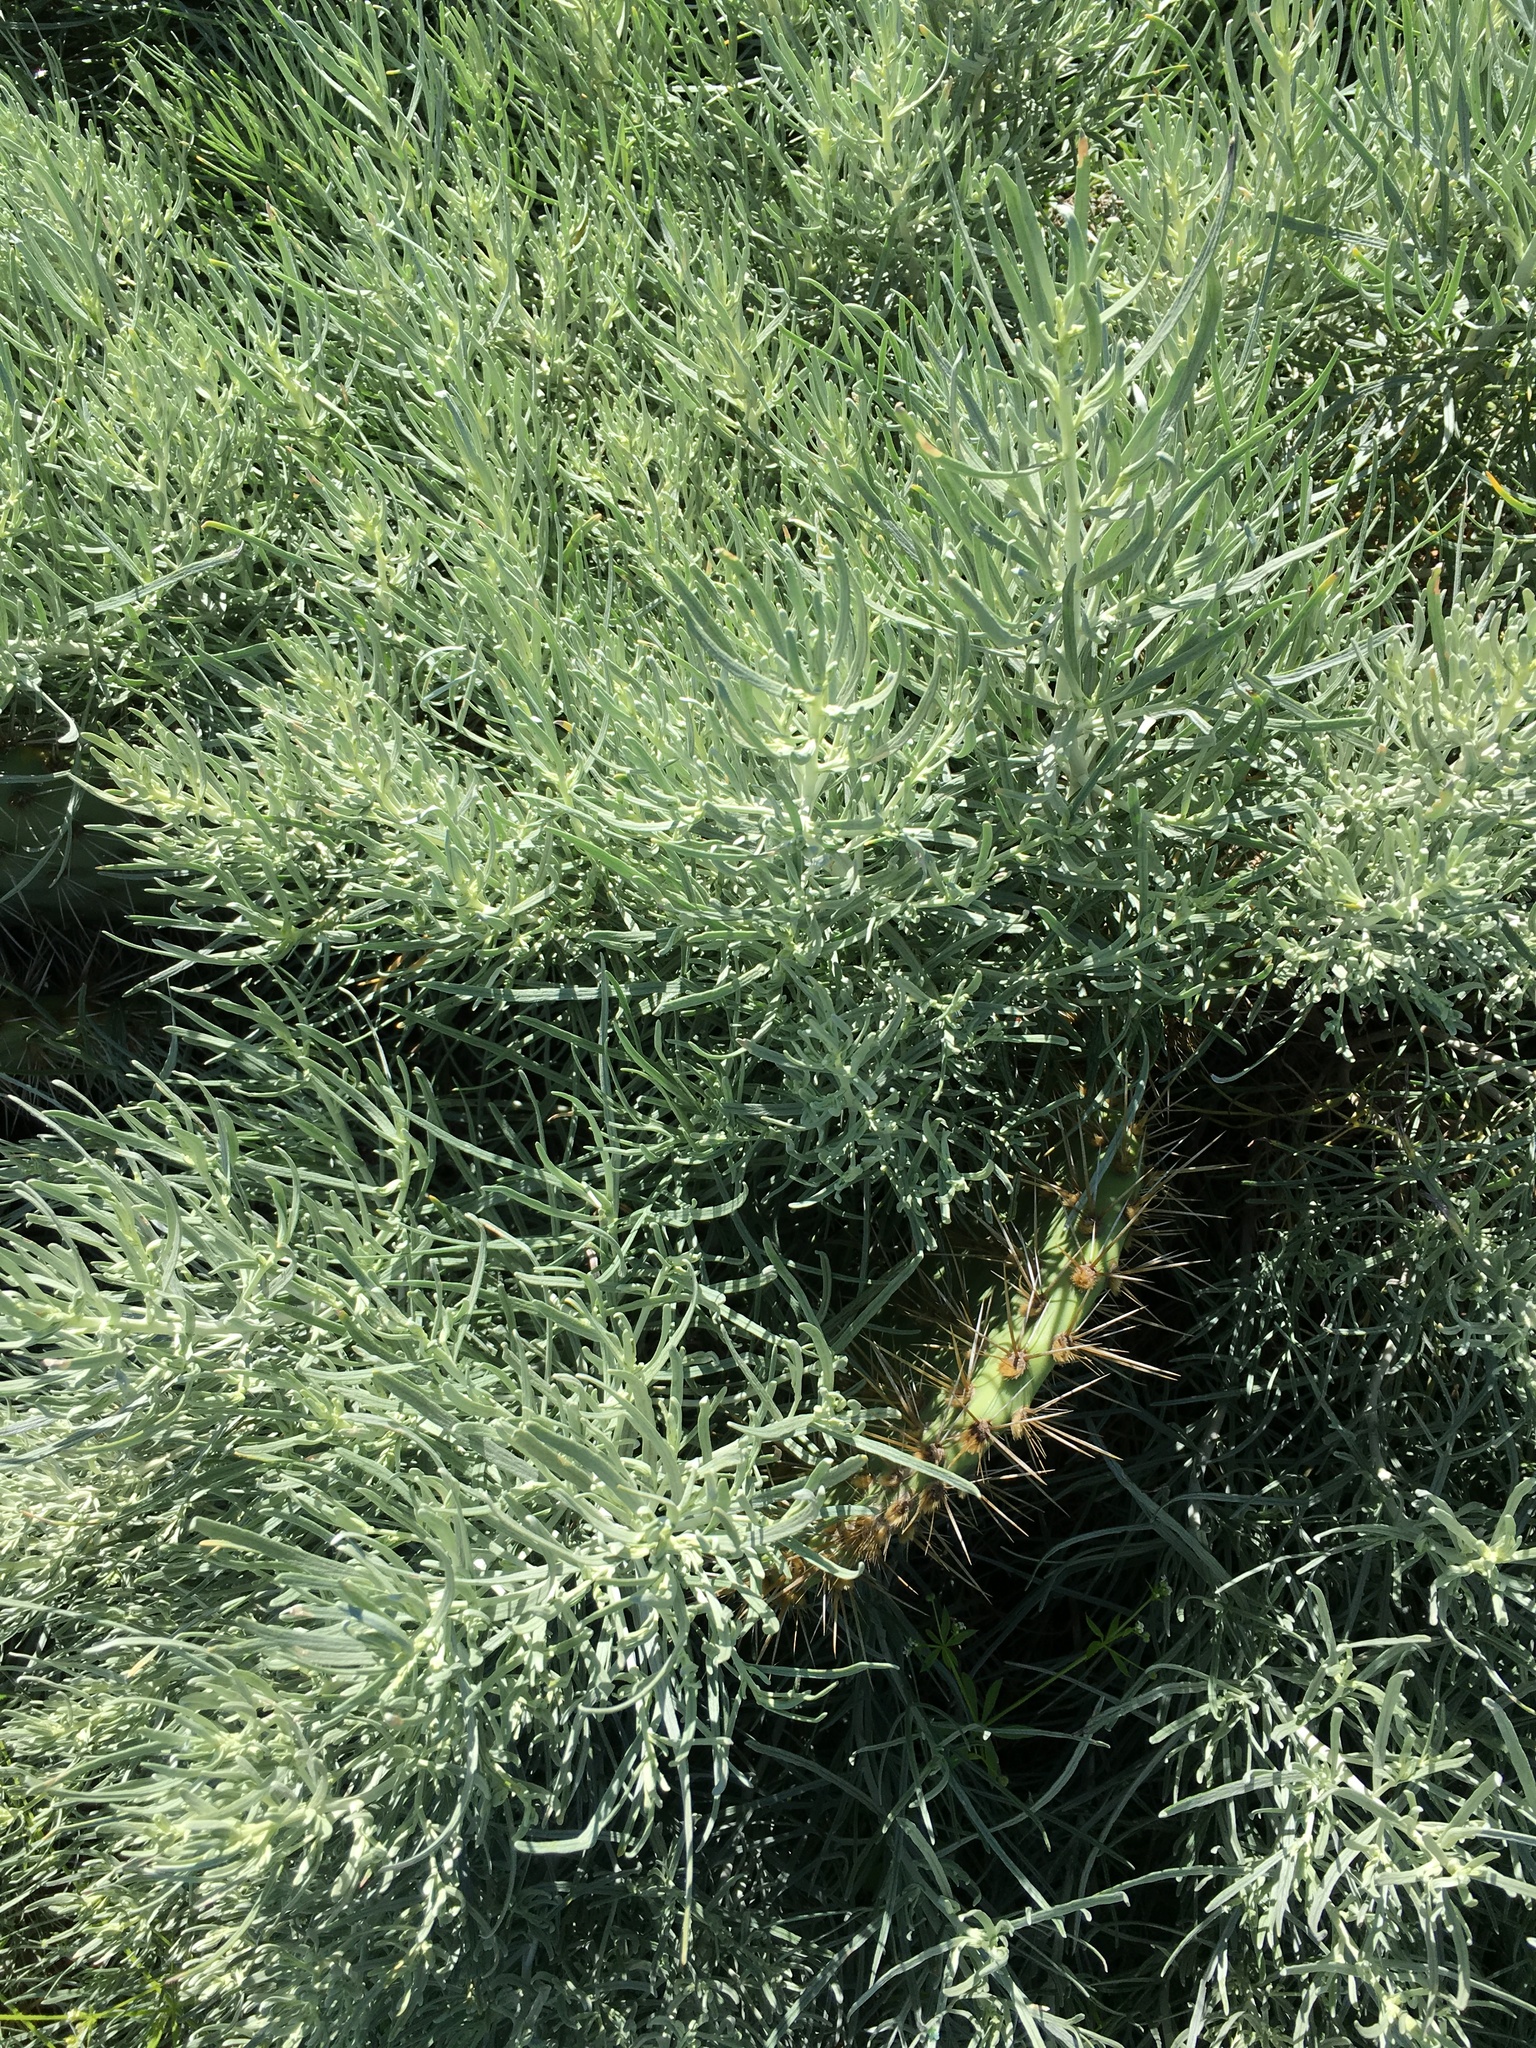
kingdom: Plantae
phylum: Tracheophyta
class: Magnoliopsida
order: Asterales
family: Asteraceae
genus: Artemisia
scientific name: Artemisia nesiotica
